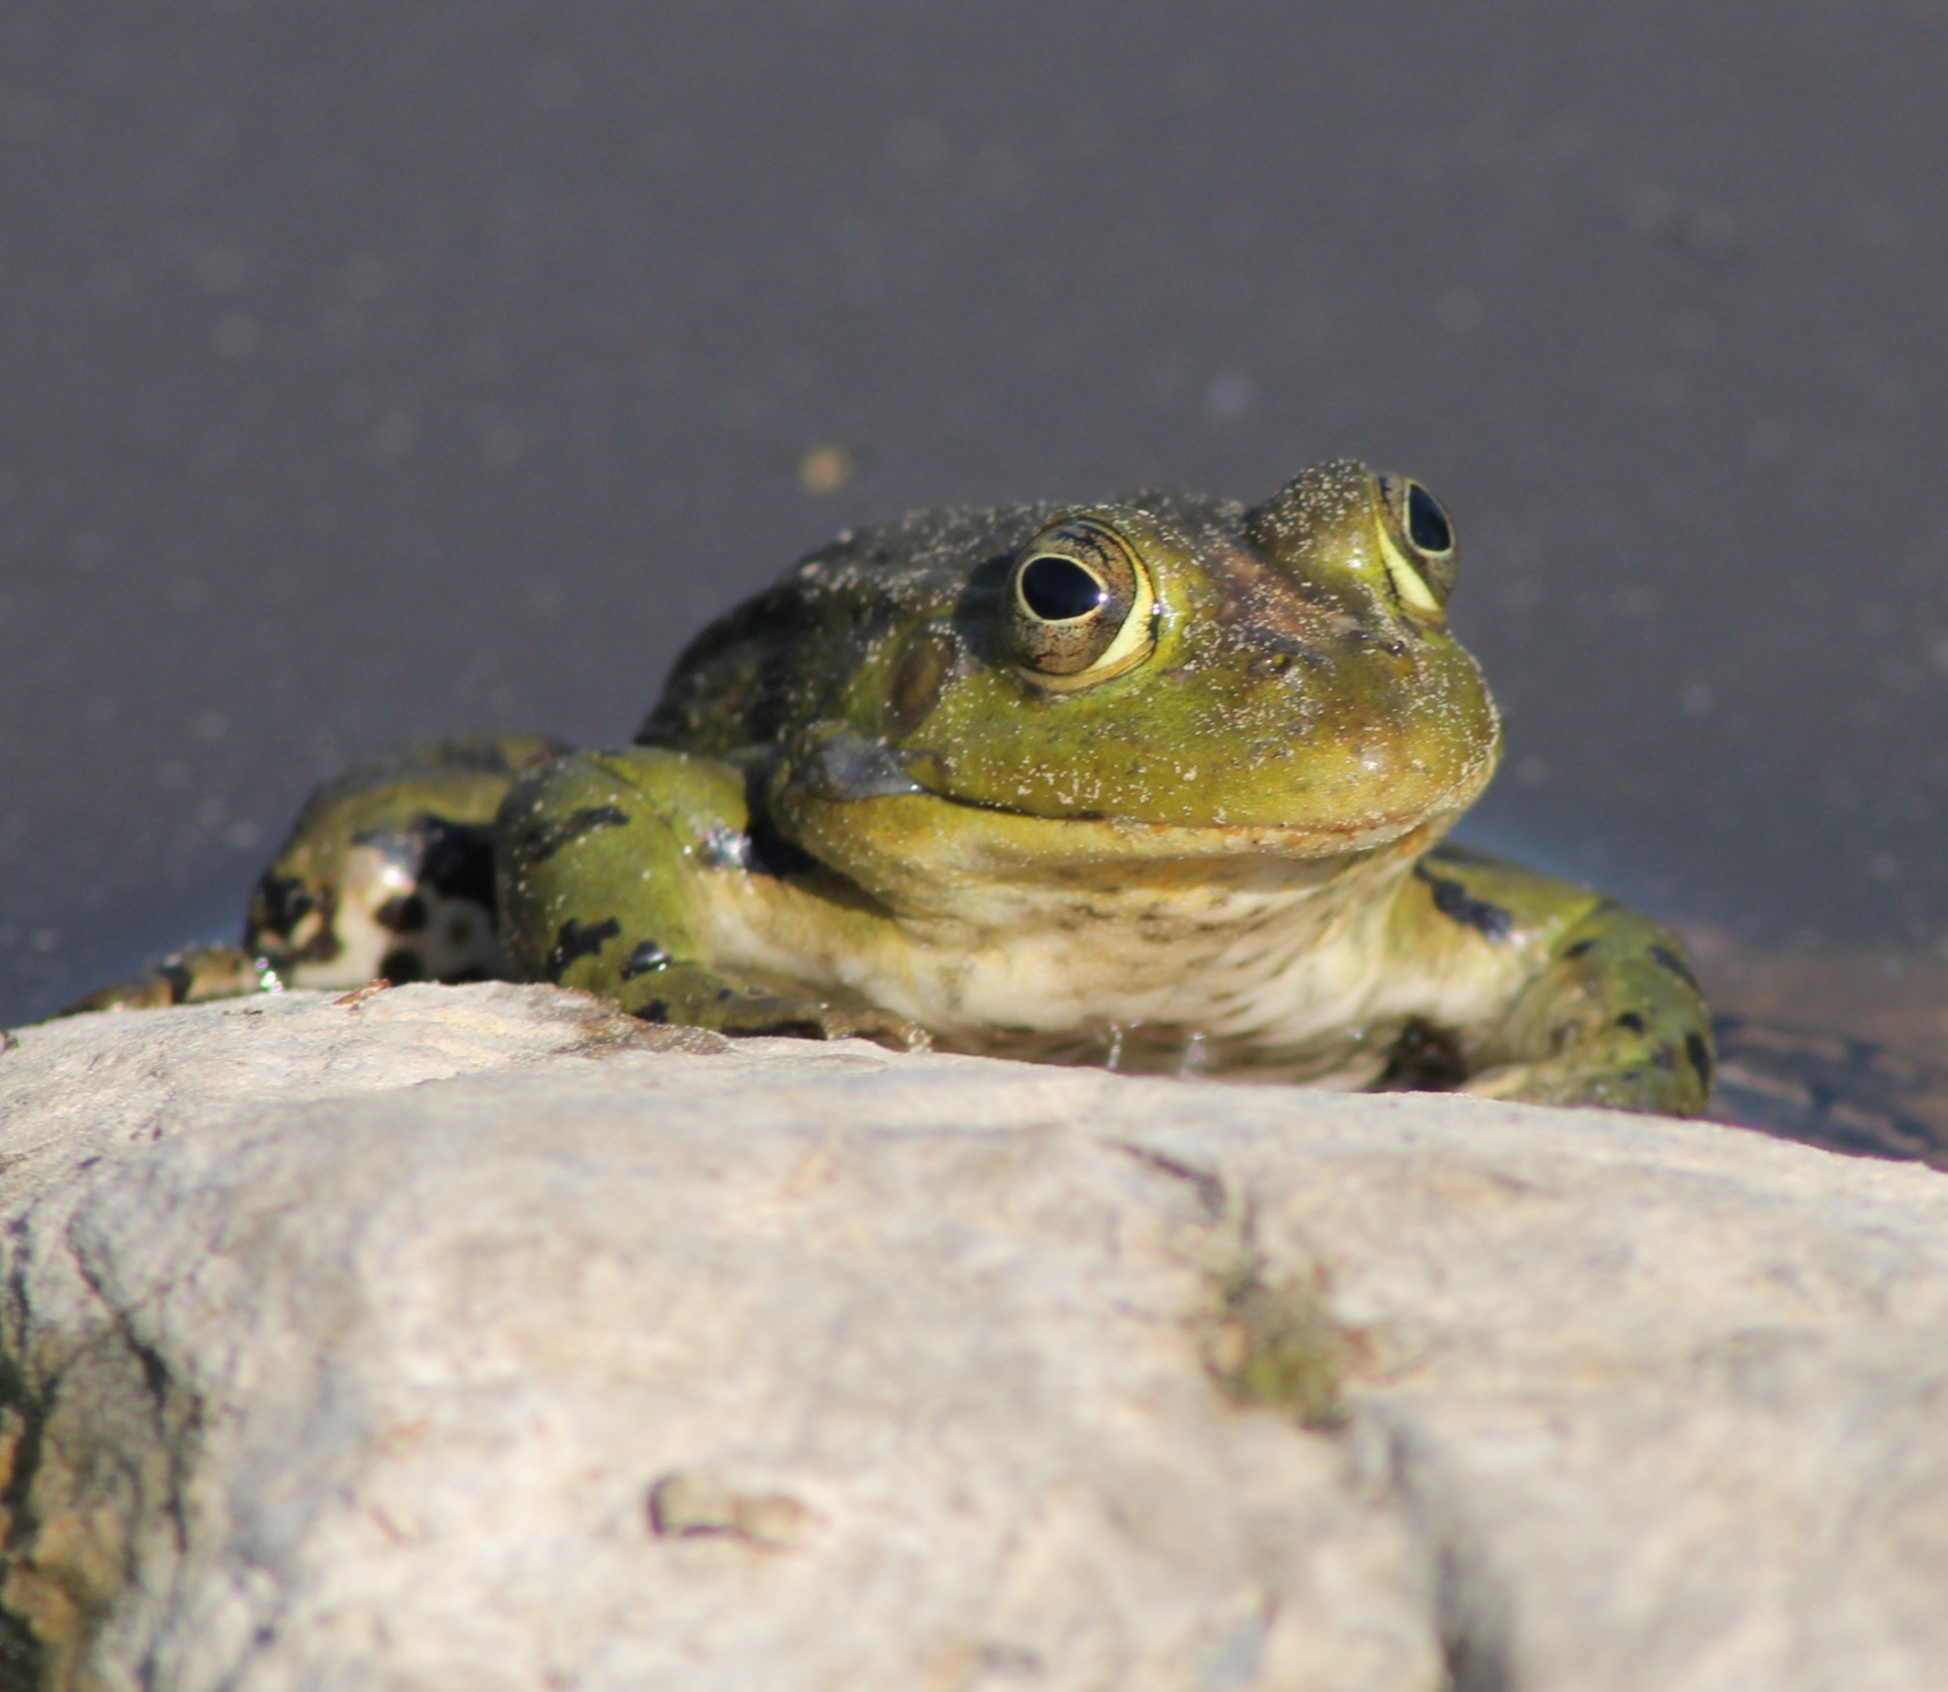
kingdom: Animalia
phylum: Chordata
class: Amphibia
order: Anura
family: Ranidae
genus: Pelophylax
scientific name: Pelophylax
